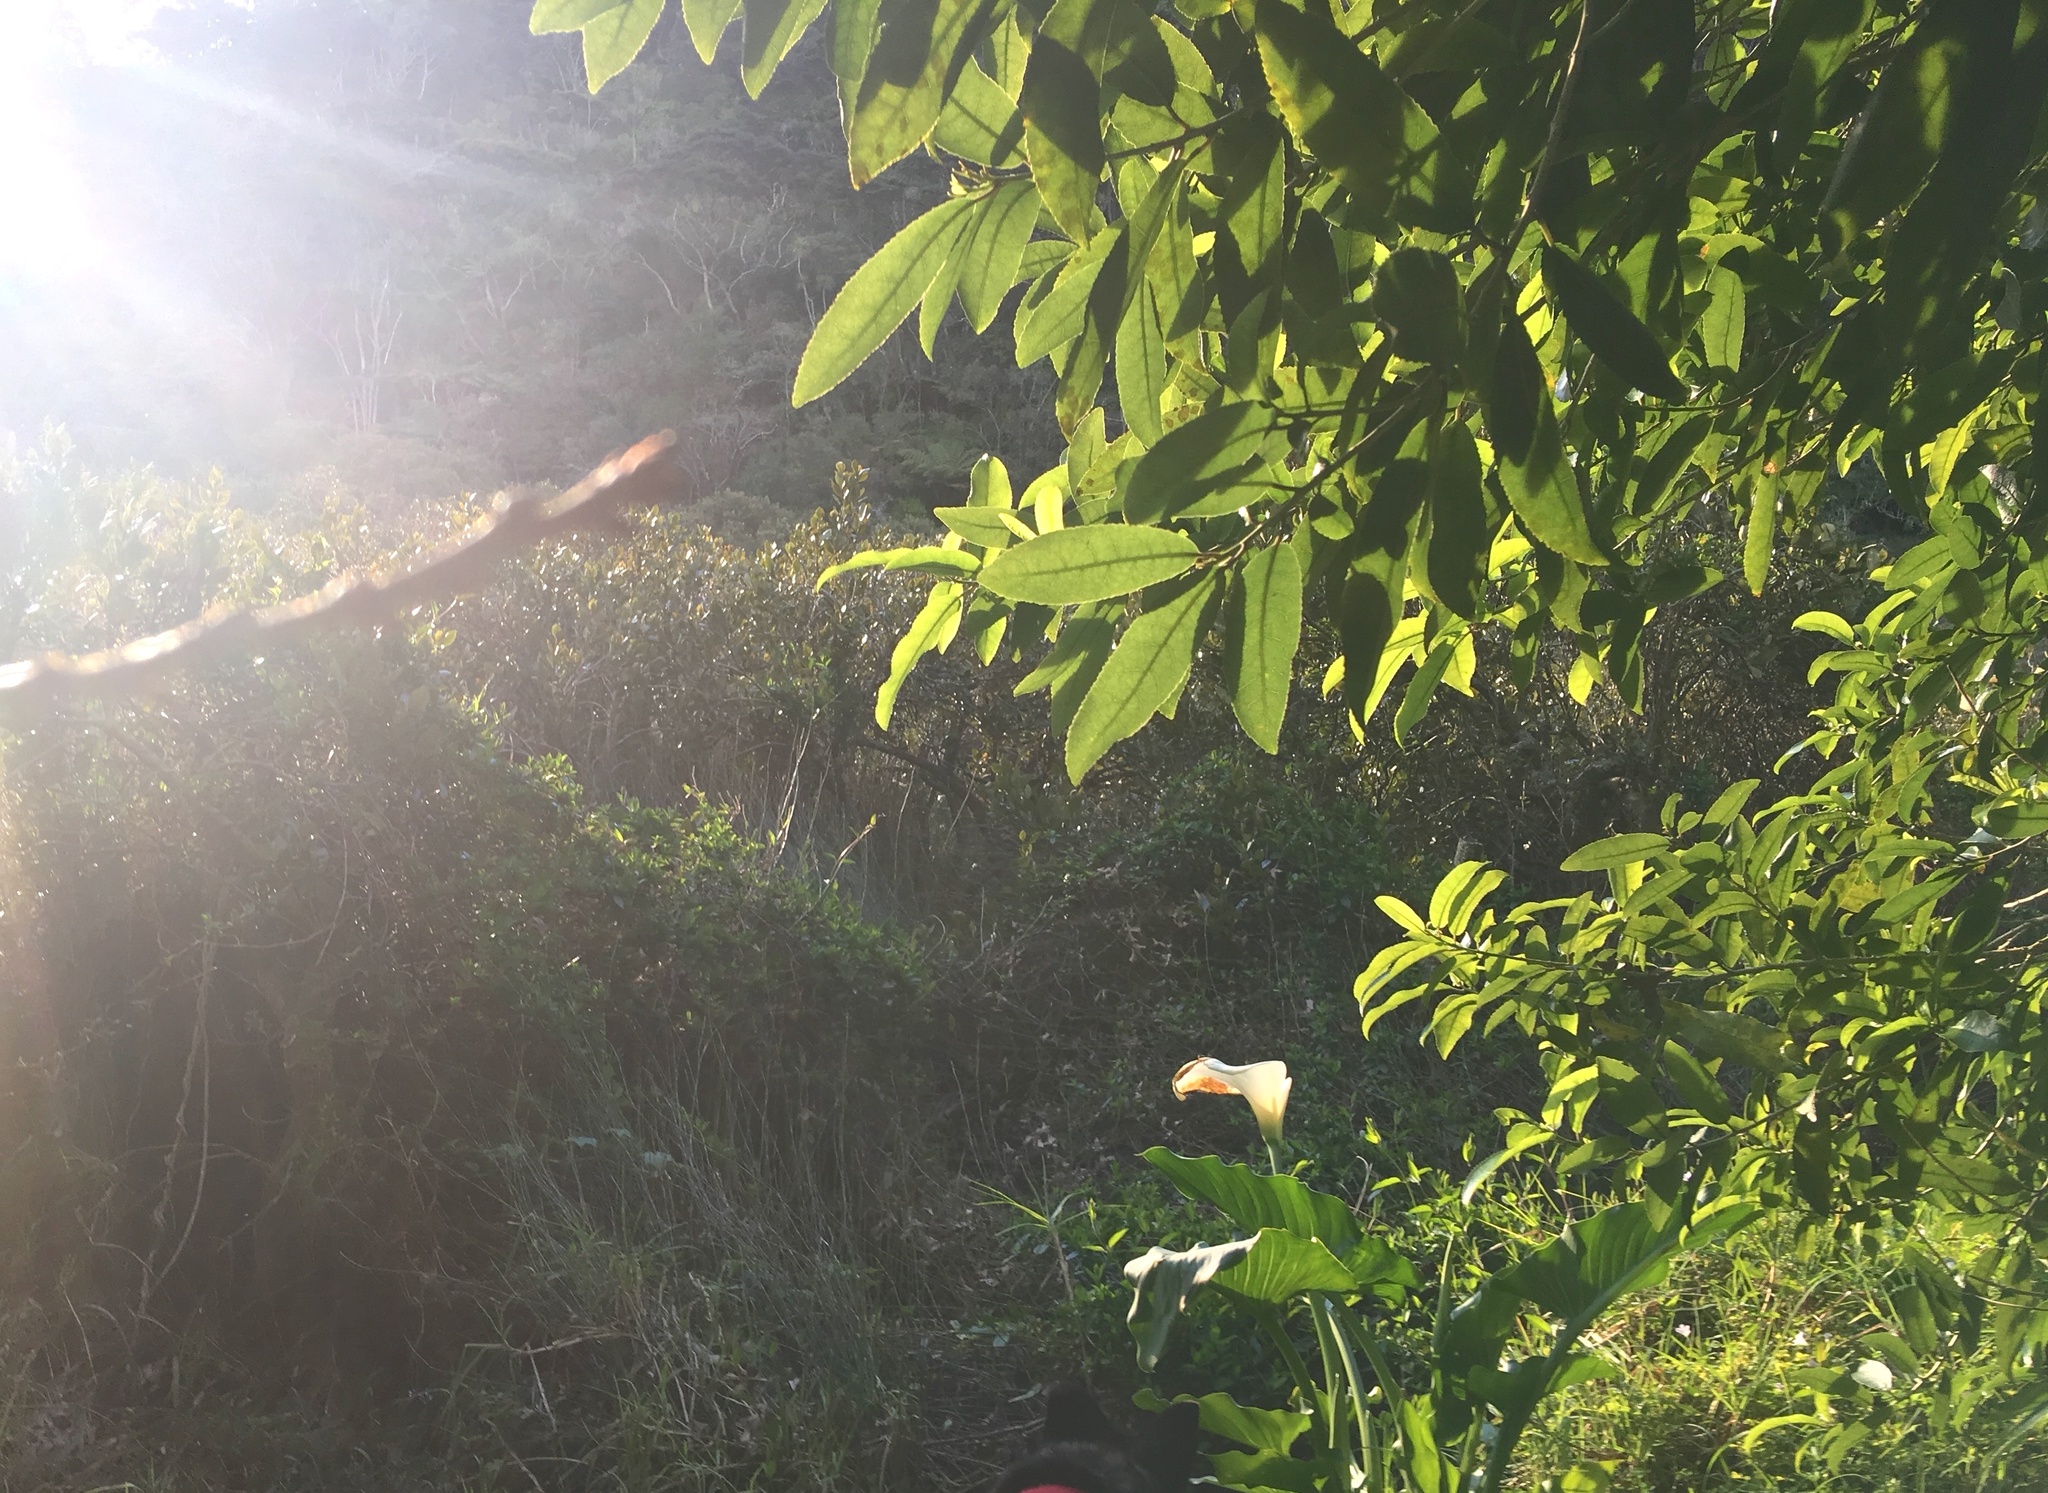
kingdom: Plantae
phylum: Tracheophyta
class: Liliopsida
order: Alismatales
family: Araceae
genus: Zantedeschia
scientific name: Zantedeschia aethiopica
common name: Altar-lily
